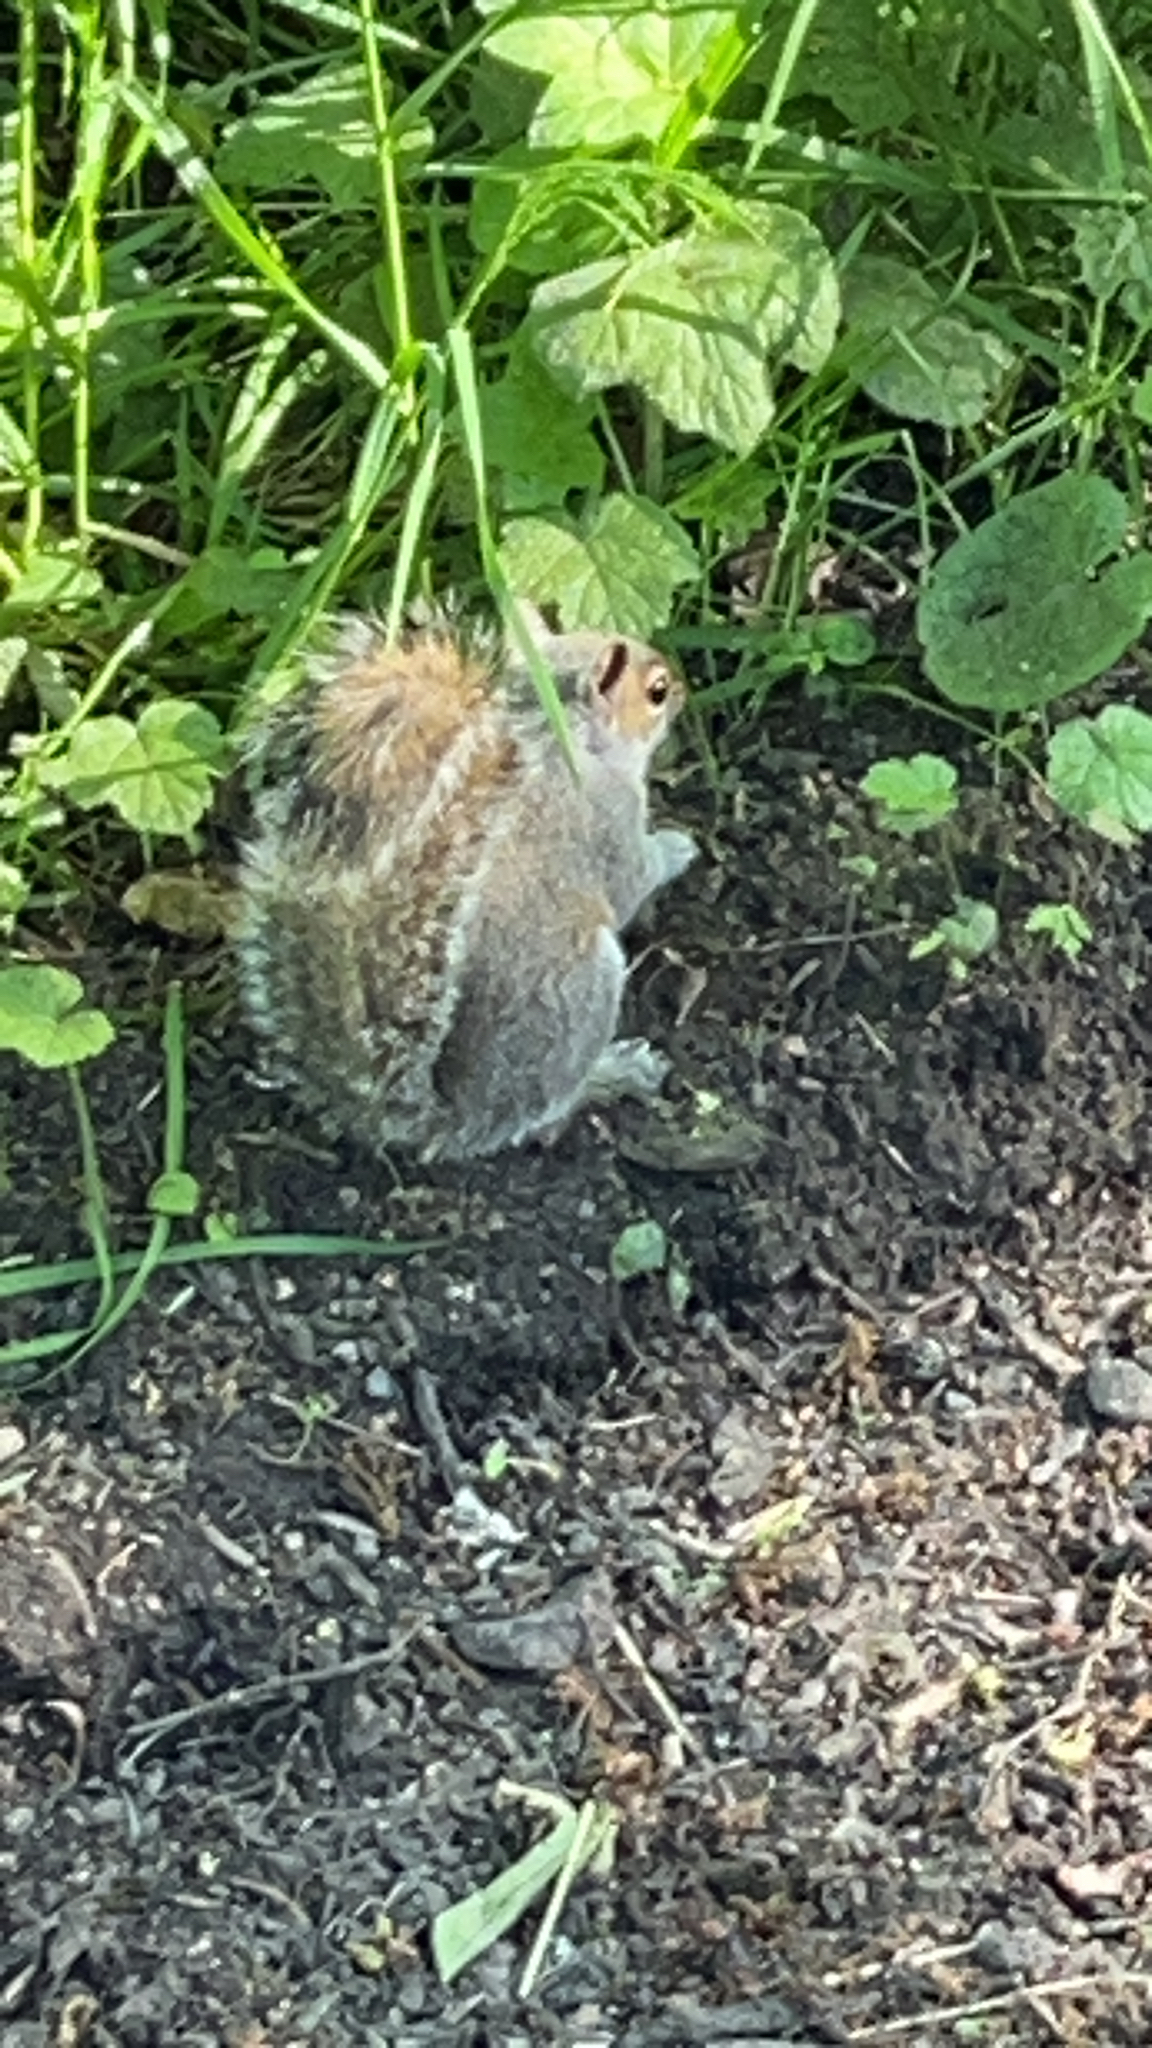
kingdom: Animalia
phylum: Chordata
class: Mammalia
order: Rodentia
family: Sciuridae
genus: Sciurus
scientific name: Sciurus carolinensis
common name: Eastern gray squirrel
